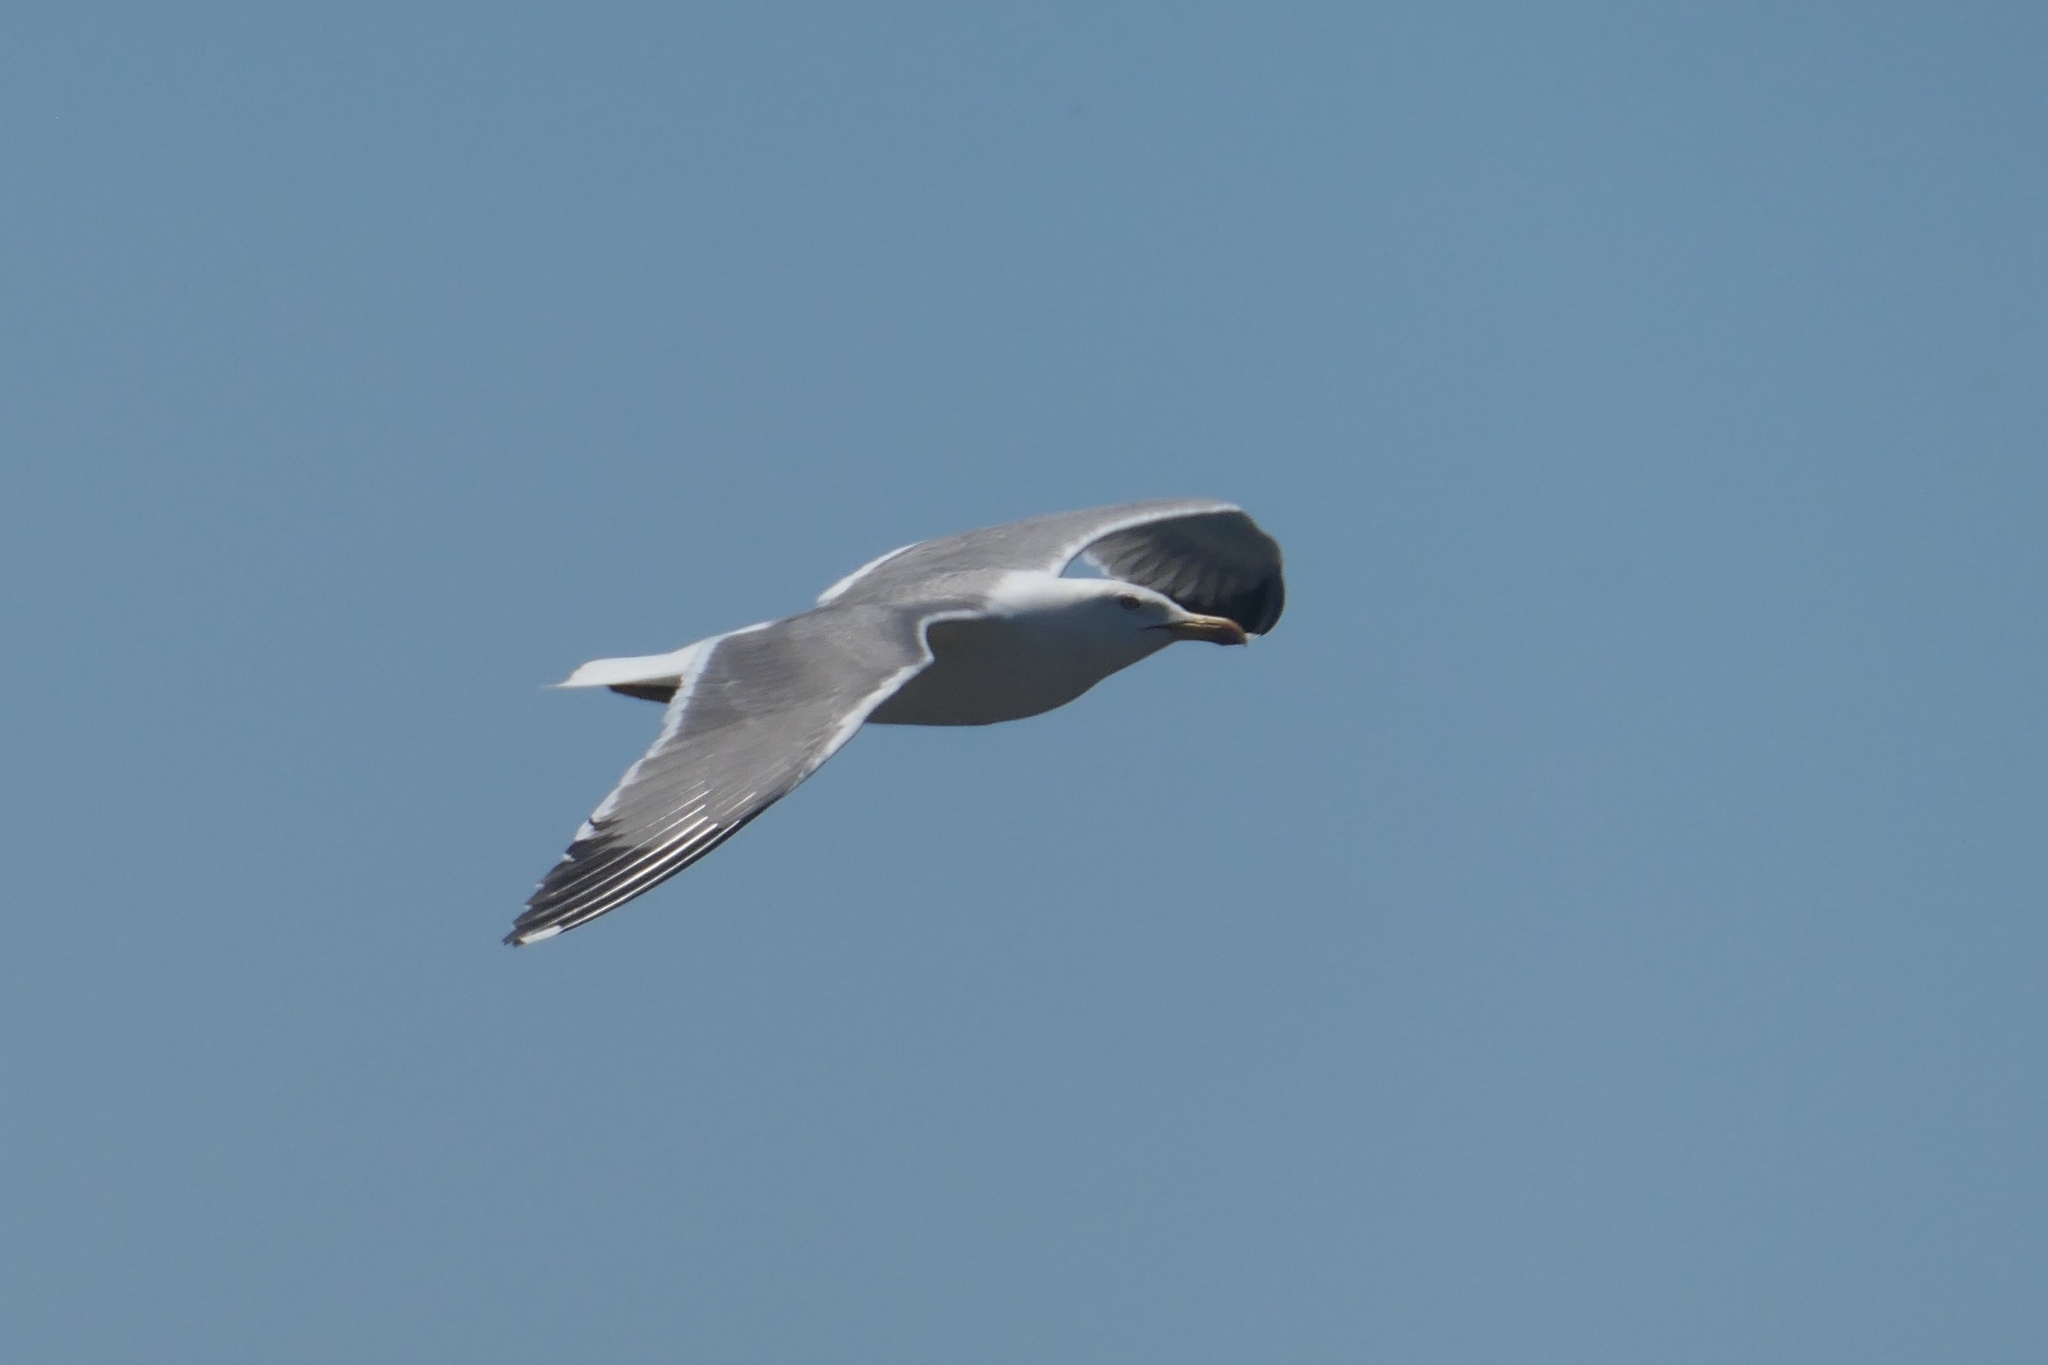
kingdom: Animalia
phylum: Chordata
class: Aves
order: Charadriiformes
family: Laridae
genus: Larus
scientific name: Larus michahellis
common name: Yellow-legged gull
